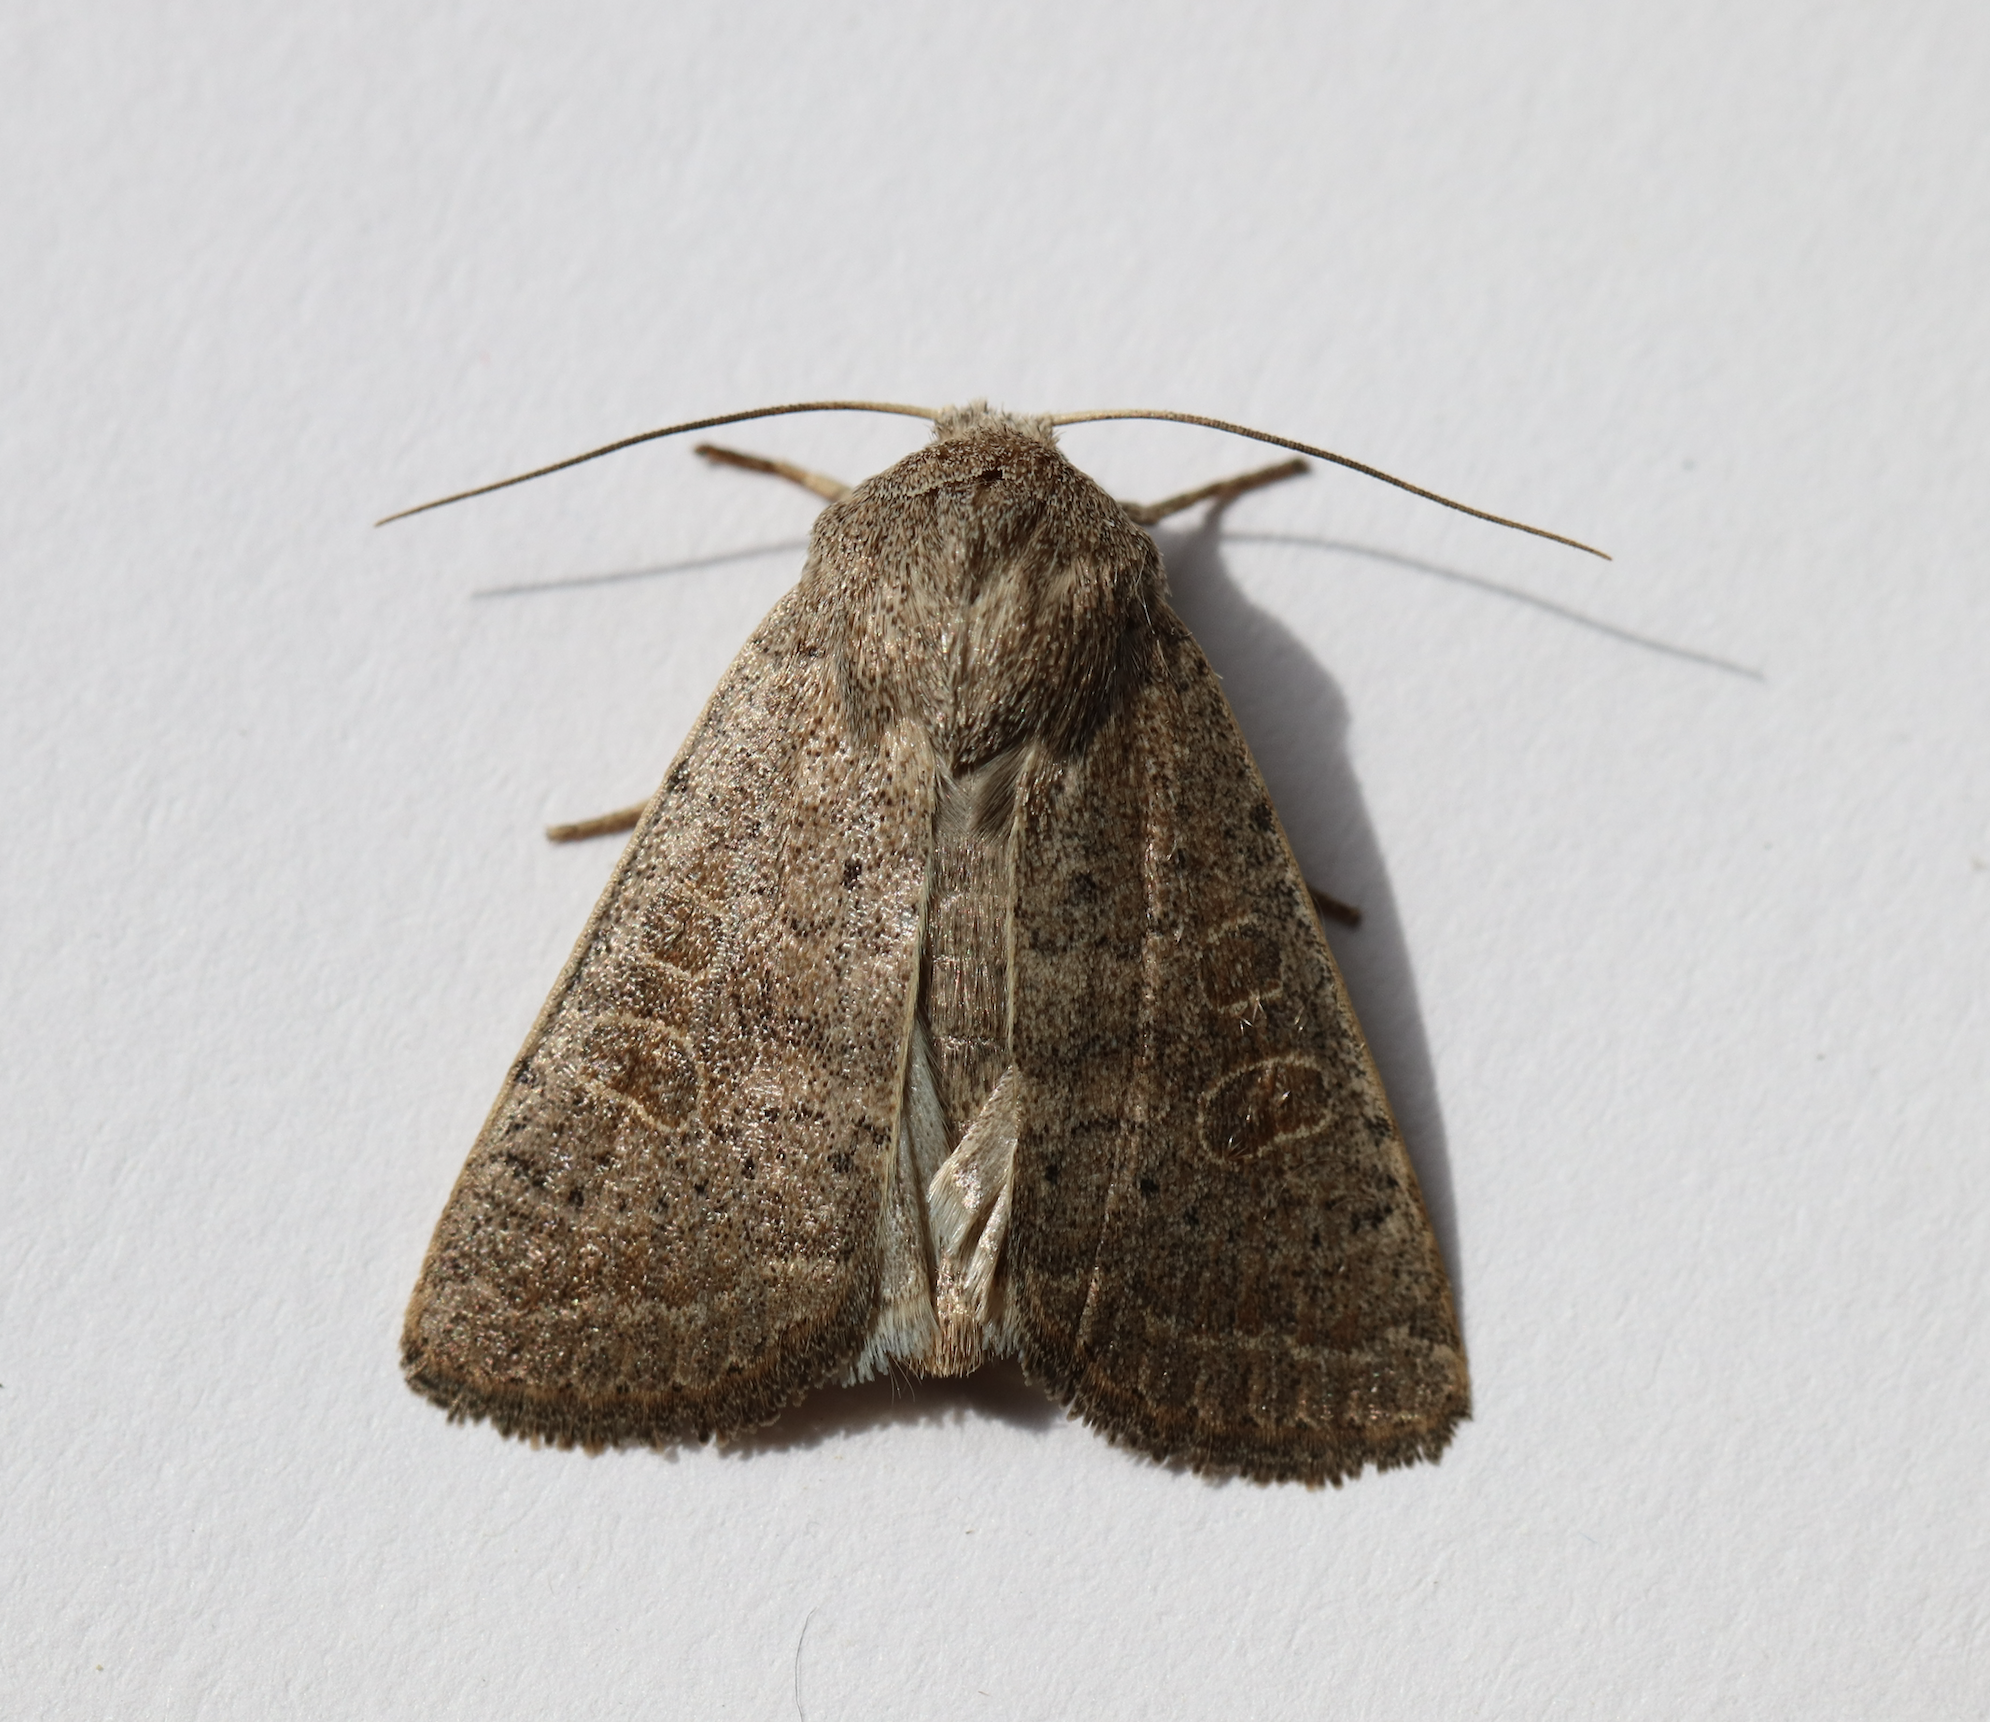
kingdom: Animalia
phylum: Arthropoda
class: Insecta
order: Lepidoptera
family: Noctuidae
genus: Hoplodrina
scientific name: Hoplodrina ambigua
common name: Vine's rustic
